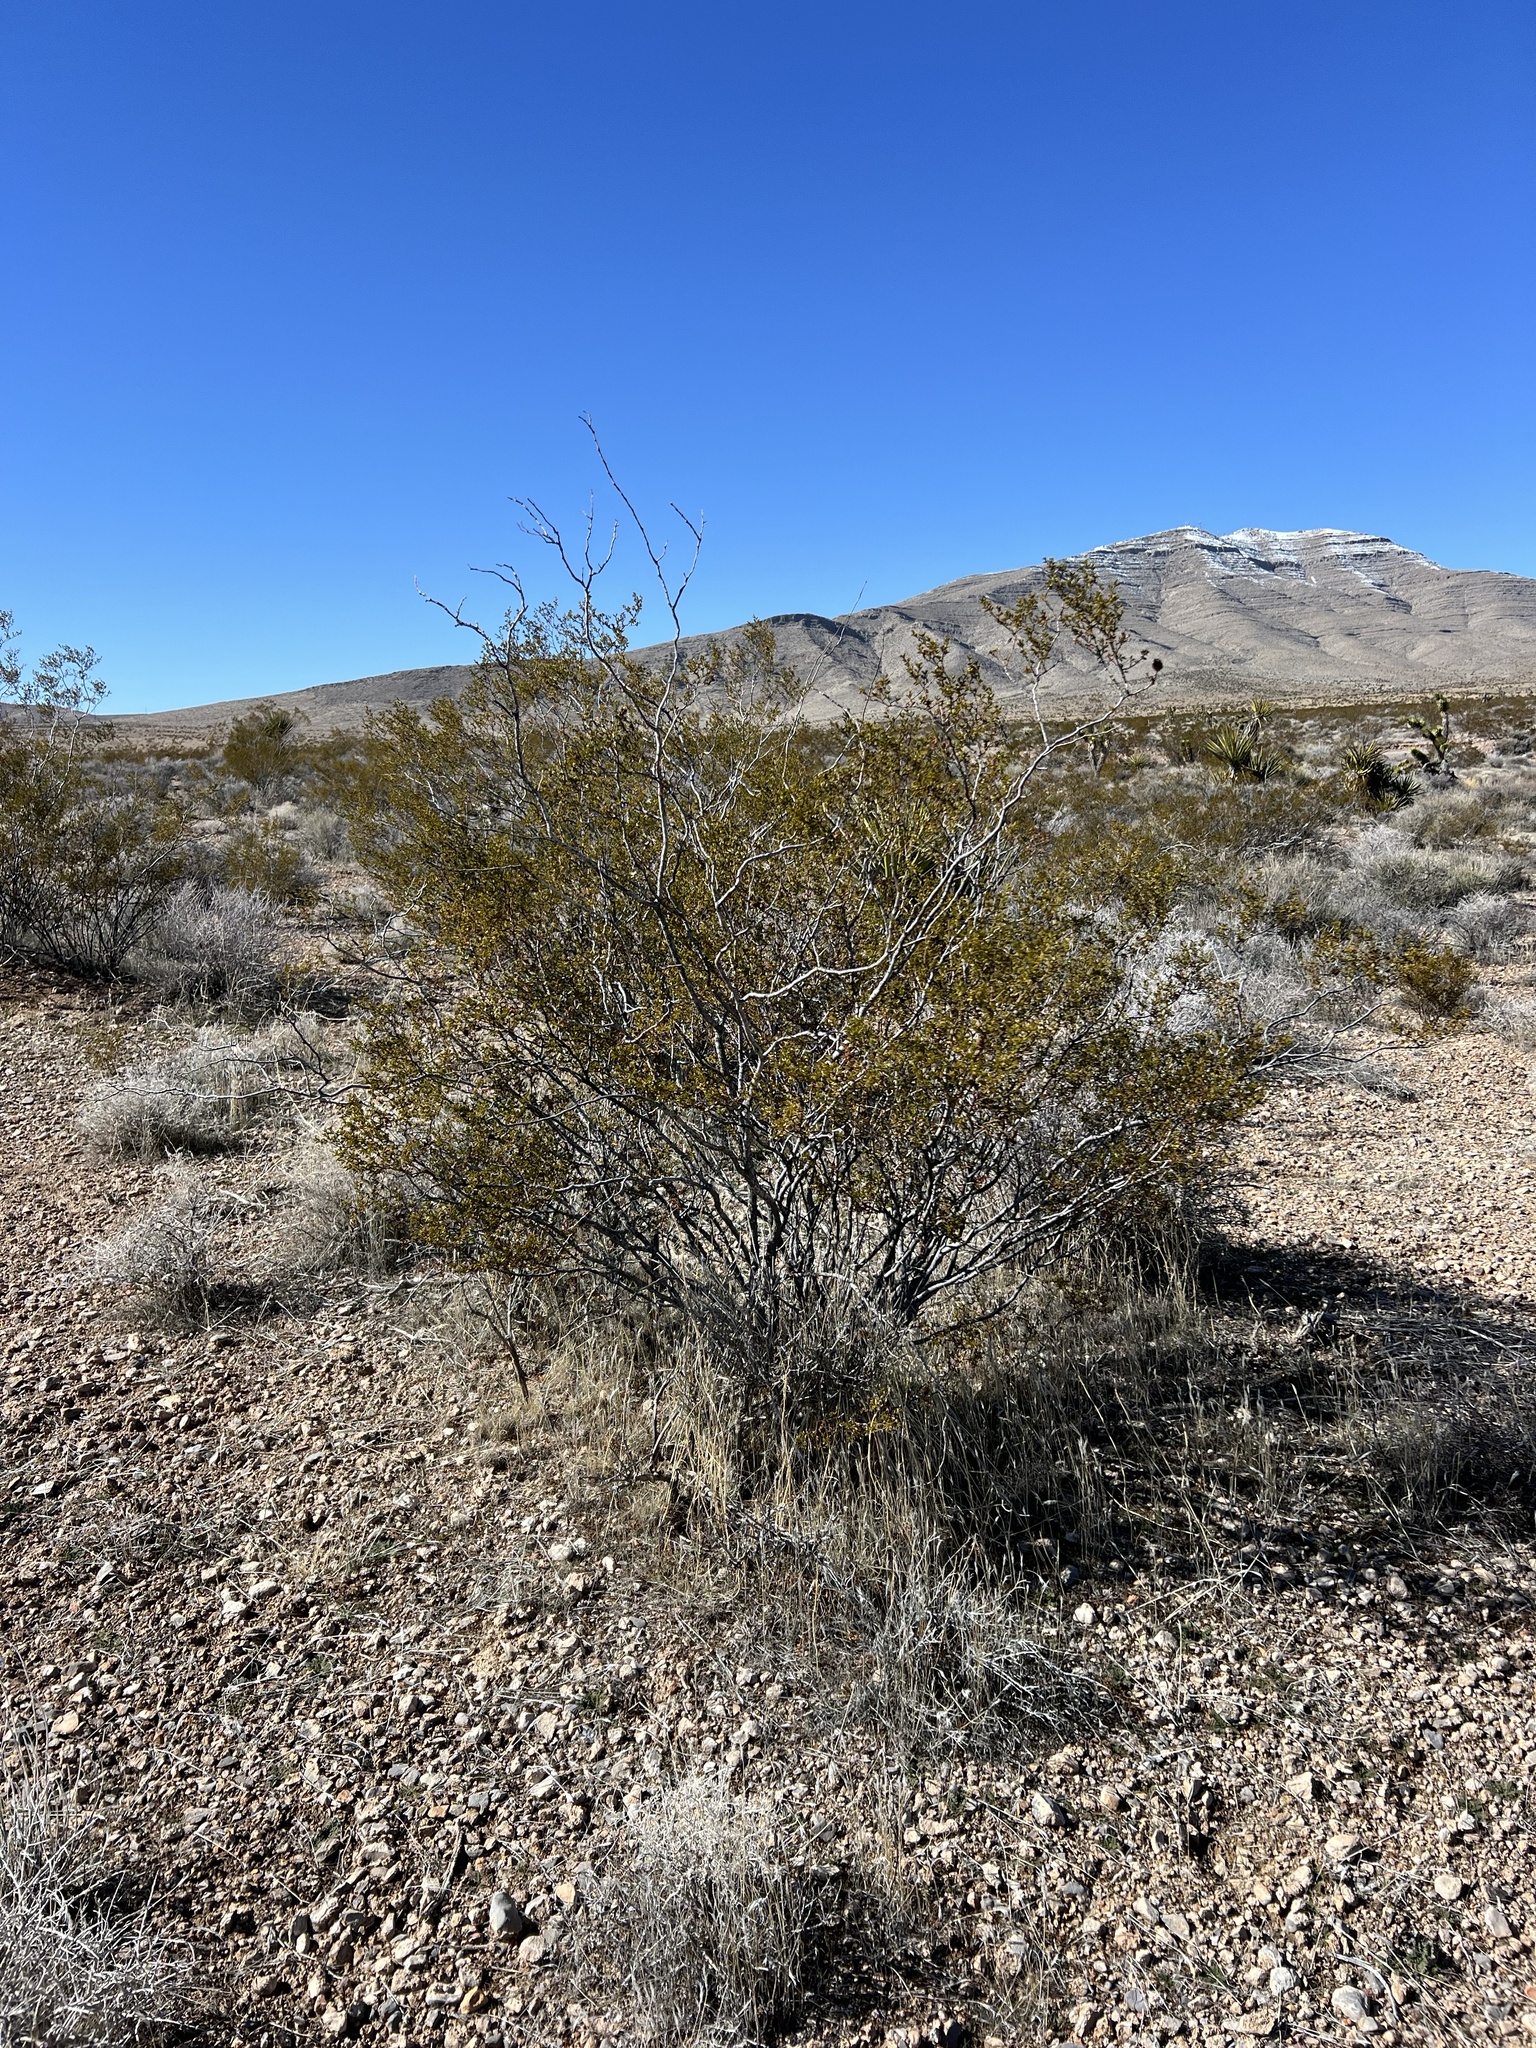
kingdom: Plantae
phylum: Tracheophyta
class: Magnoliopsida
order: Zygophyllales
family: Zygophyllaceae
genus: Larrea
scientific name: Larrea tridentata
